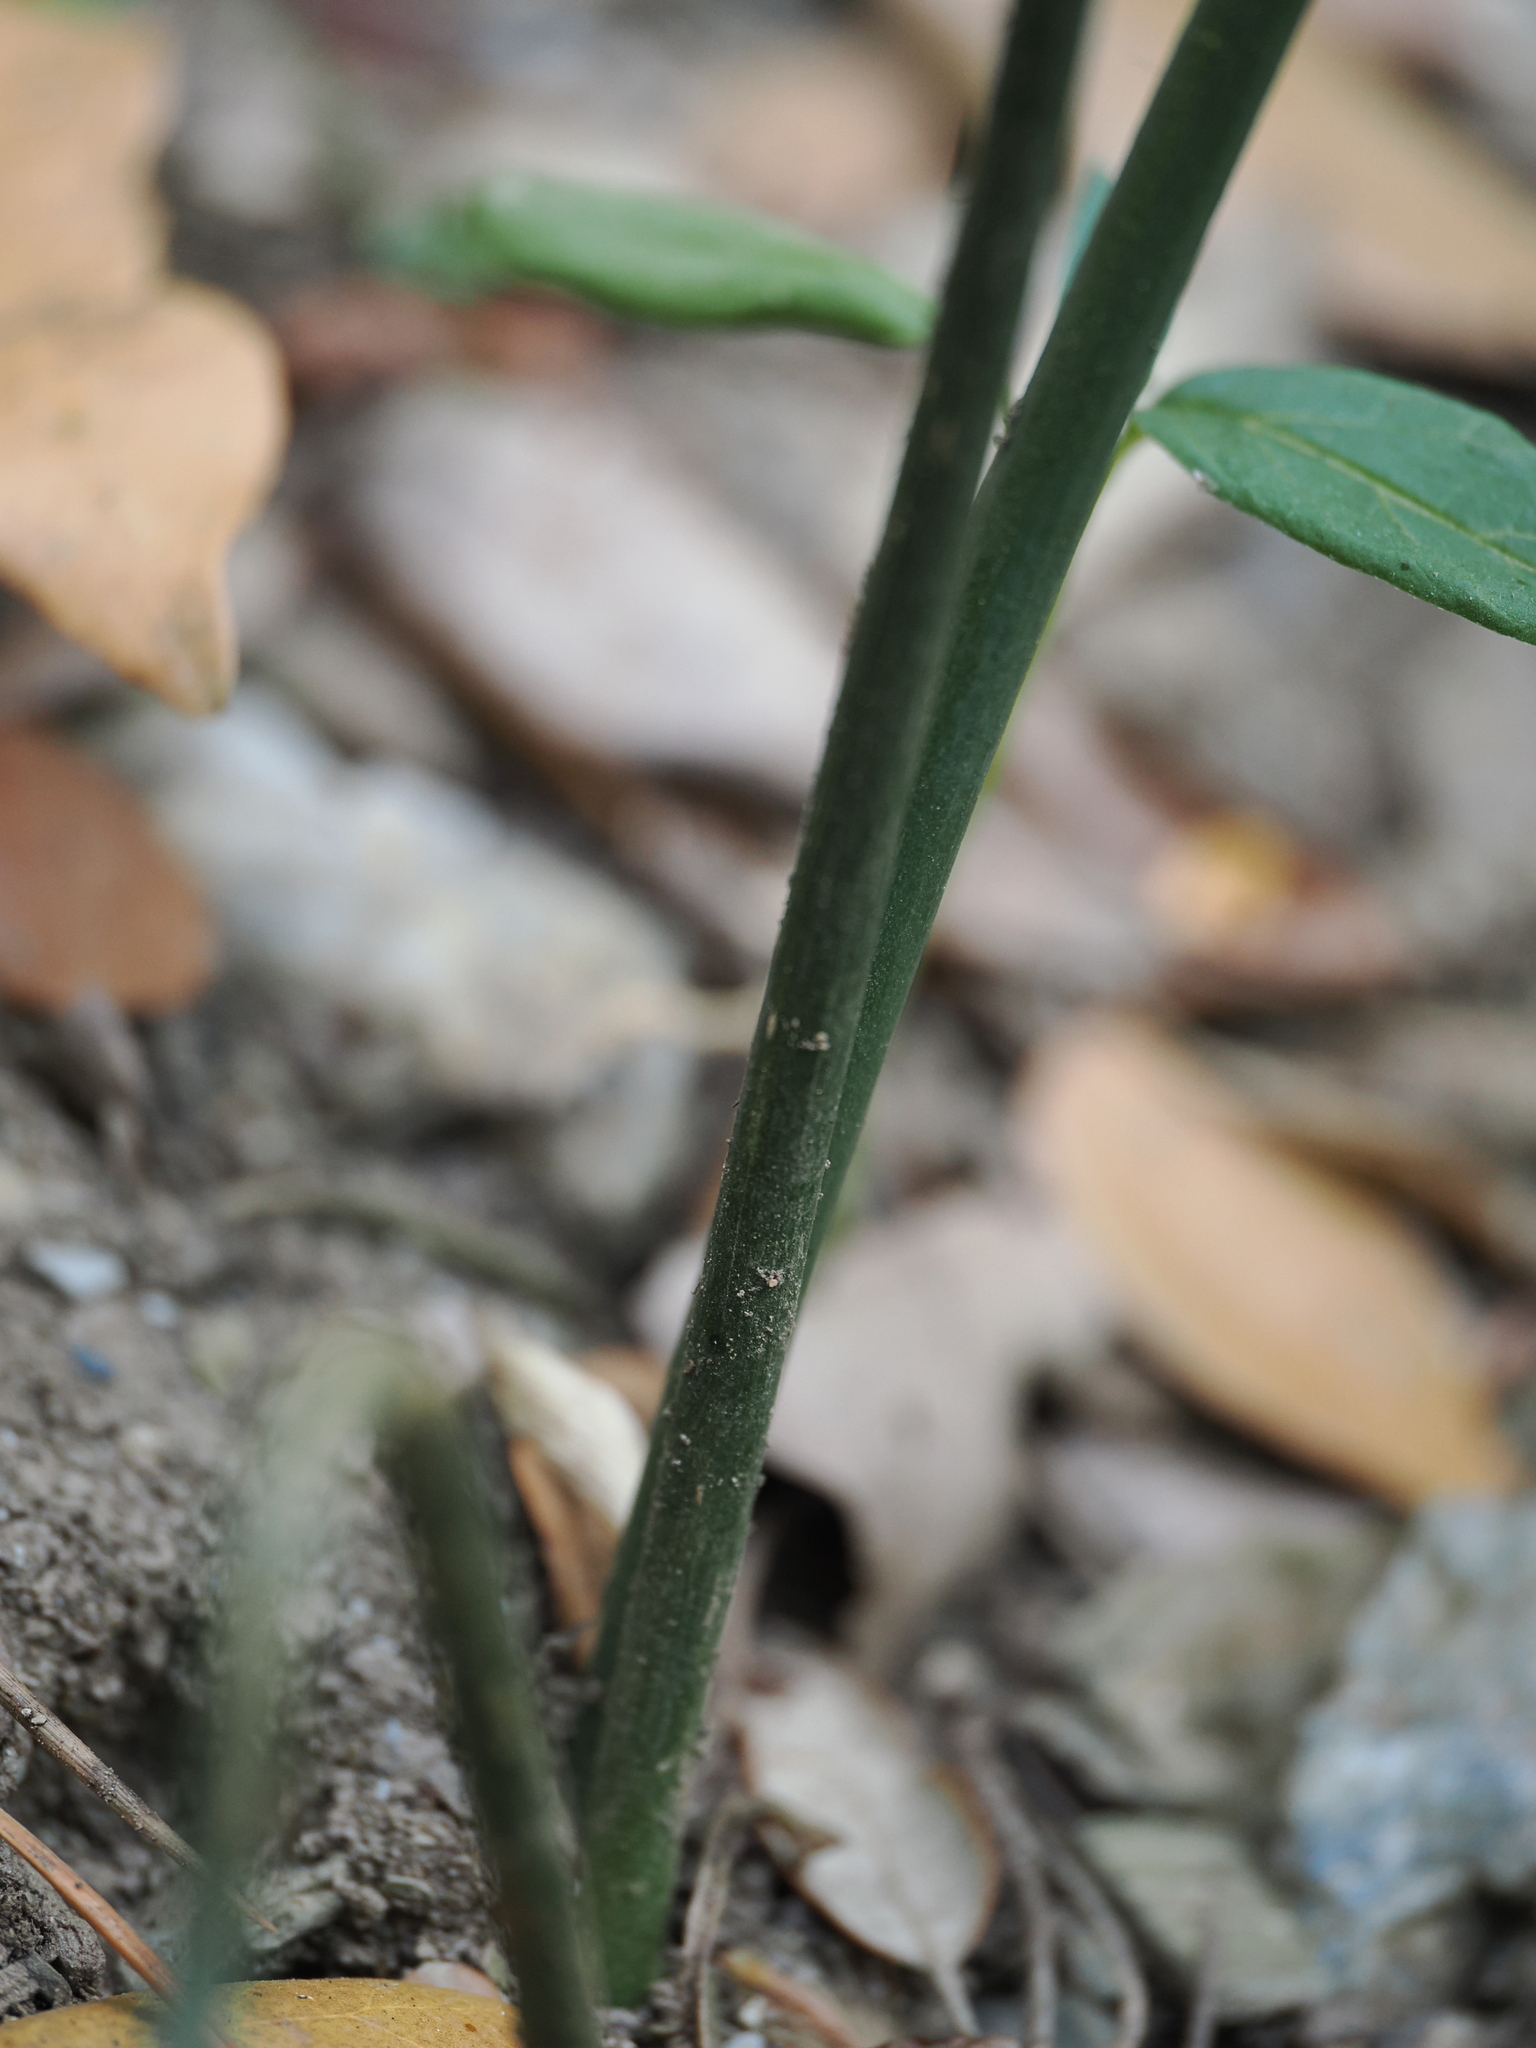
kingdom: Plantae
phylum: Tracheophyta
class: Liliopsida
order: Asparagales
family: Asparagaceae
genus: Ruscus
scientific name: Ruscus aculeatus
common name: Butcher's-broom
